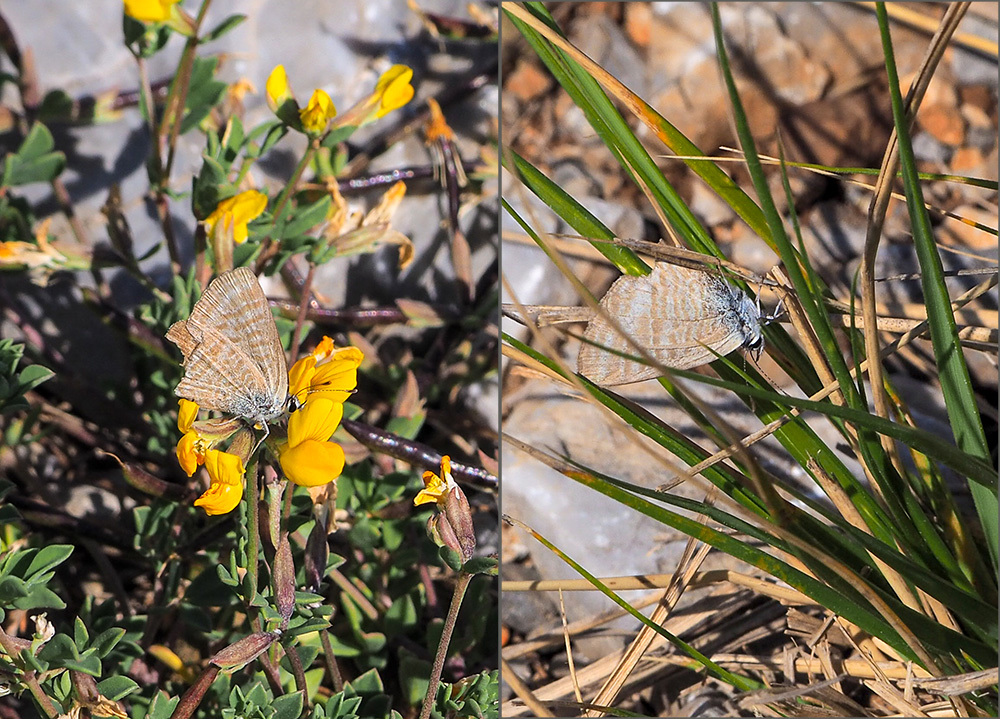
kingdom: Animalia
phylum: Arthropoda
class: Insecta
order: Lepidoptera
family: Lycaenidae
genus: Lampides
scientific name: Lampides boeticus
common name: Long-tailed blue
